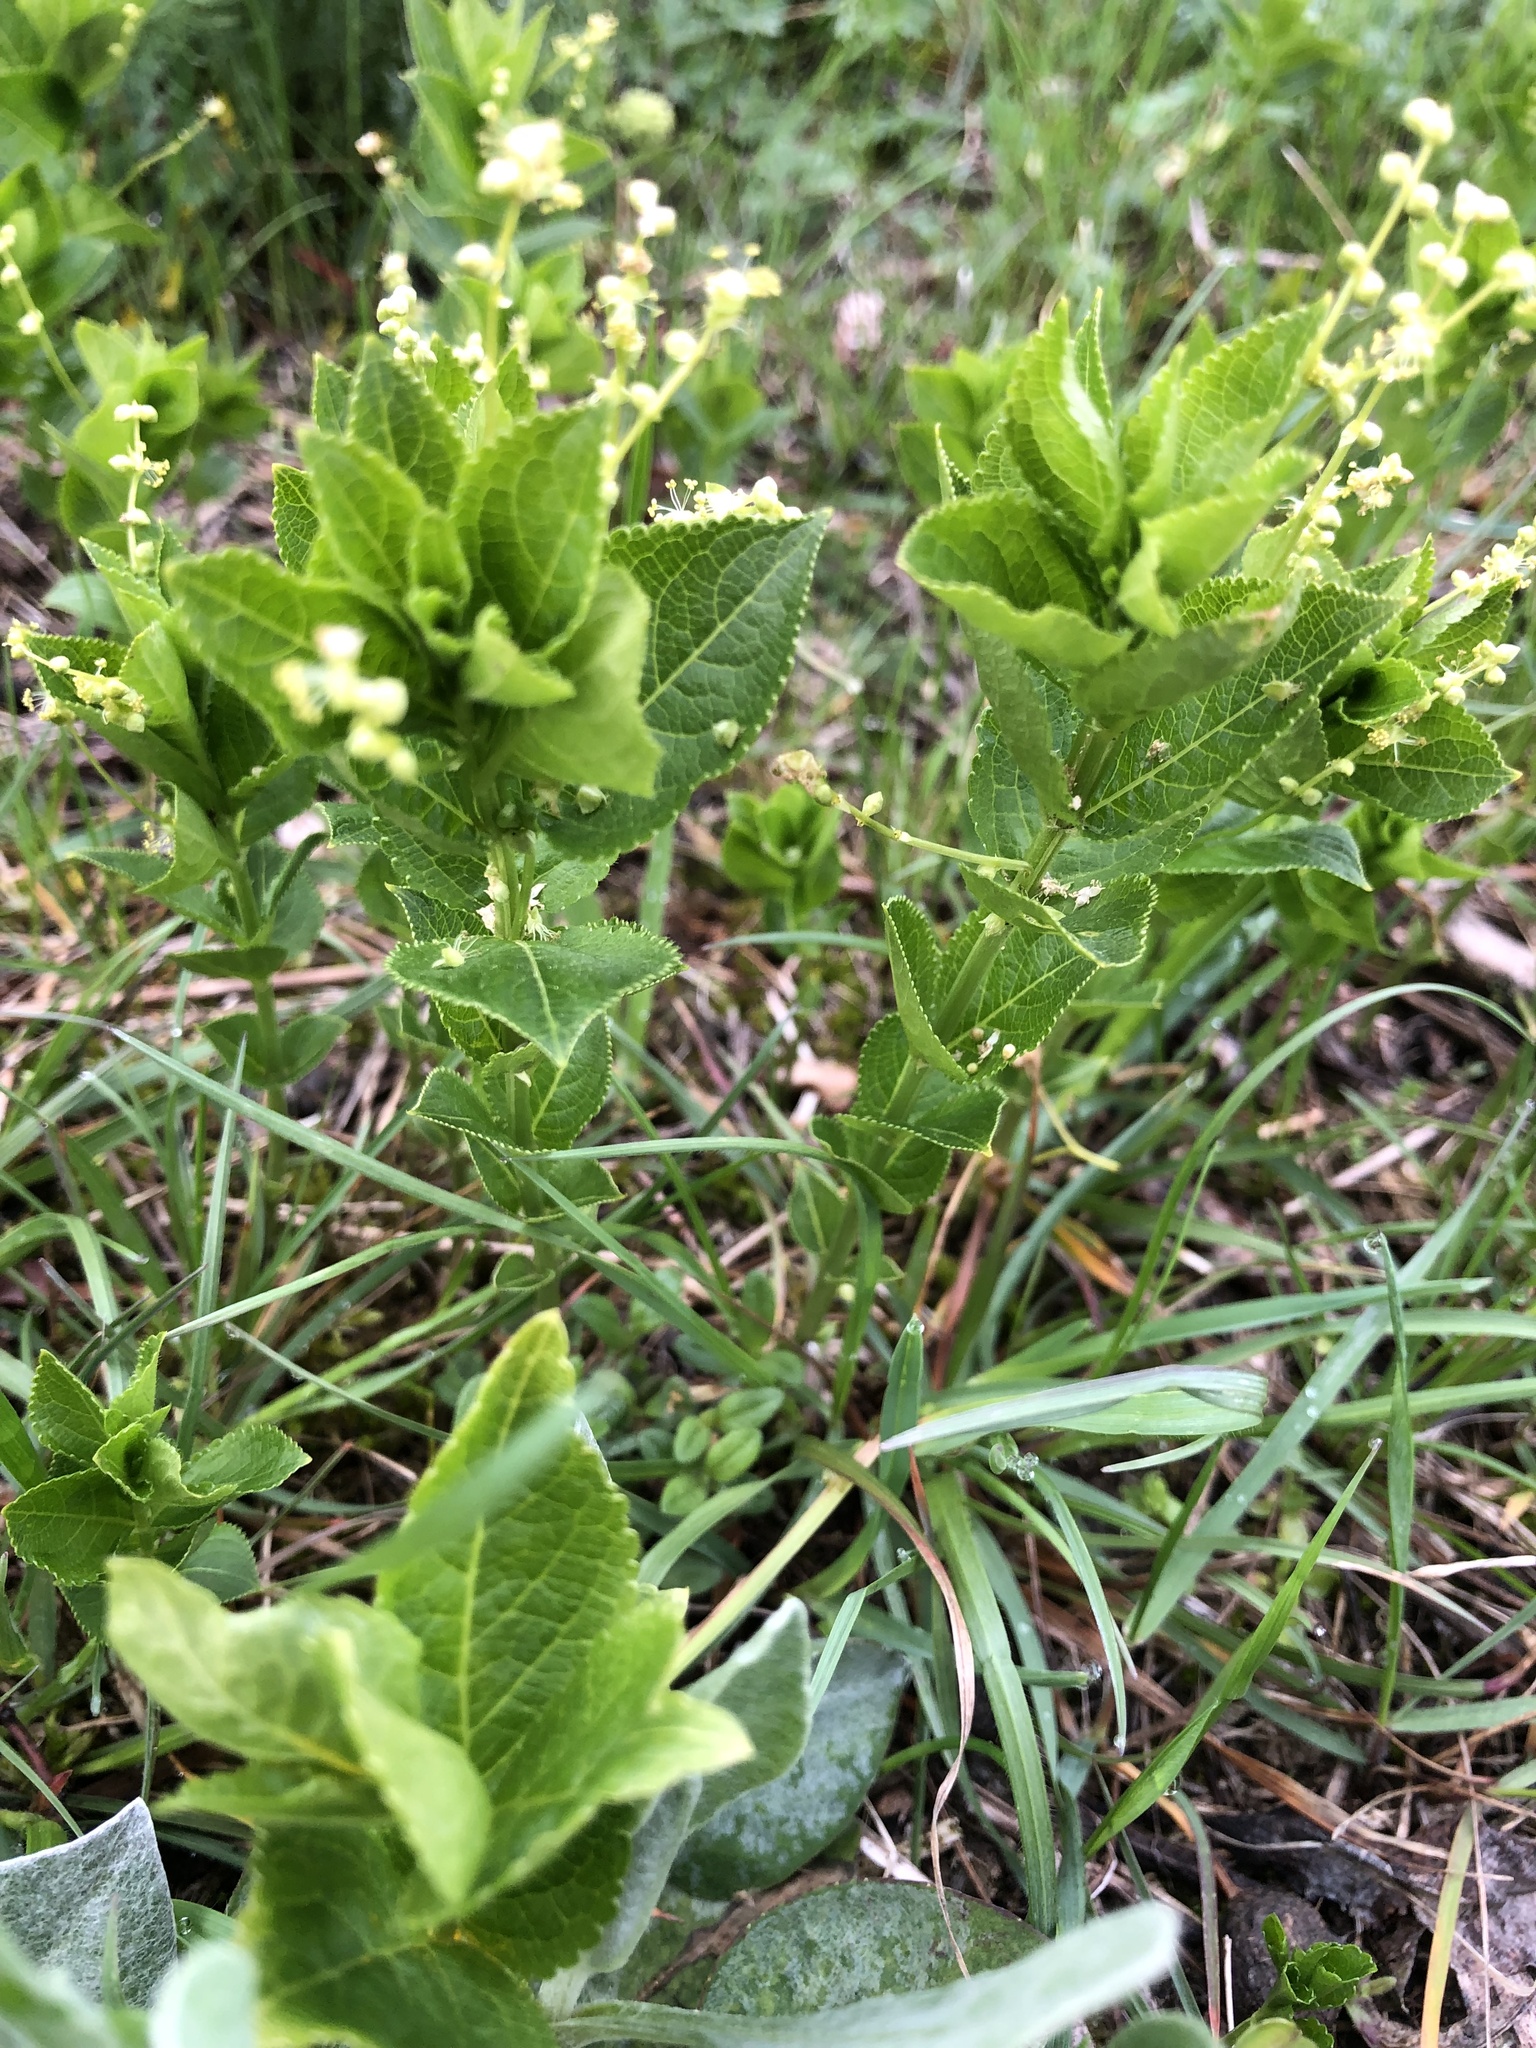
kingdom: Plantae
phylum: Tracheophyta
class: Magnoliopsida
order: Malpighiales
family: Euphorbiaceae
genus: Mercurialis
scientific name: Mercurialis perennis
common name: Dog mercury
